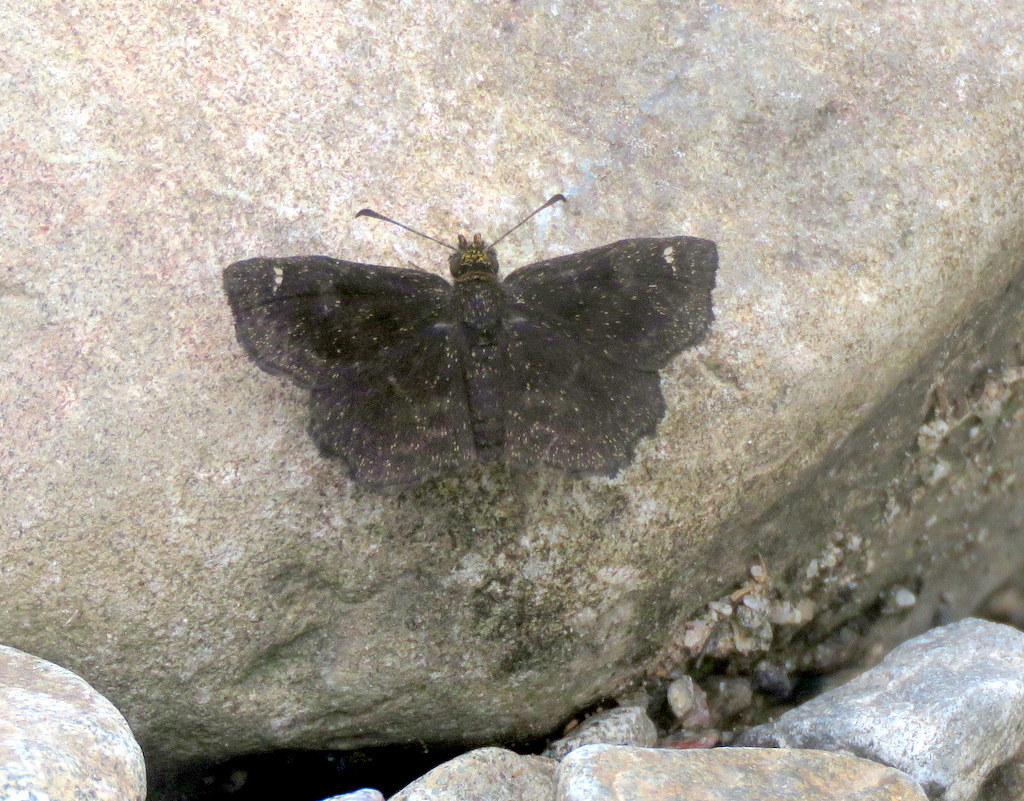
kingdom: Animalia
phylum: Arthropoda
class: Insecta
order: Lepidoptera
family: Hesperiidae
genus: Staphylus
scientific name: Staphylus musculus
